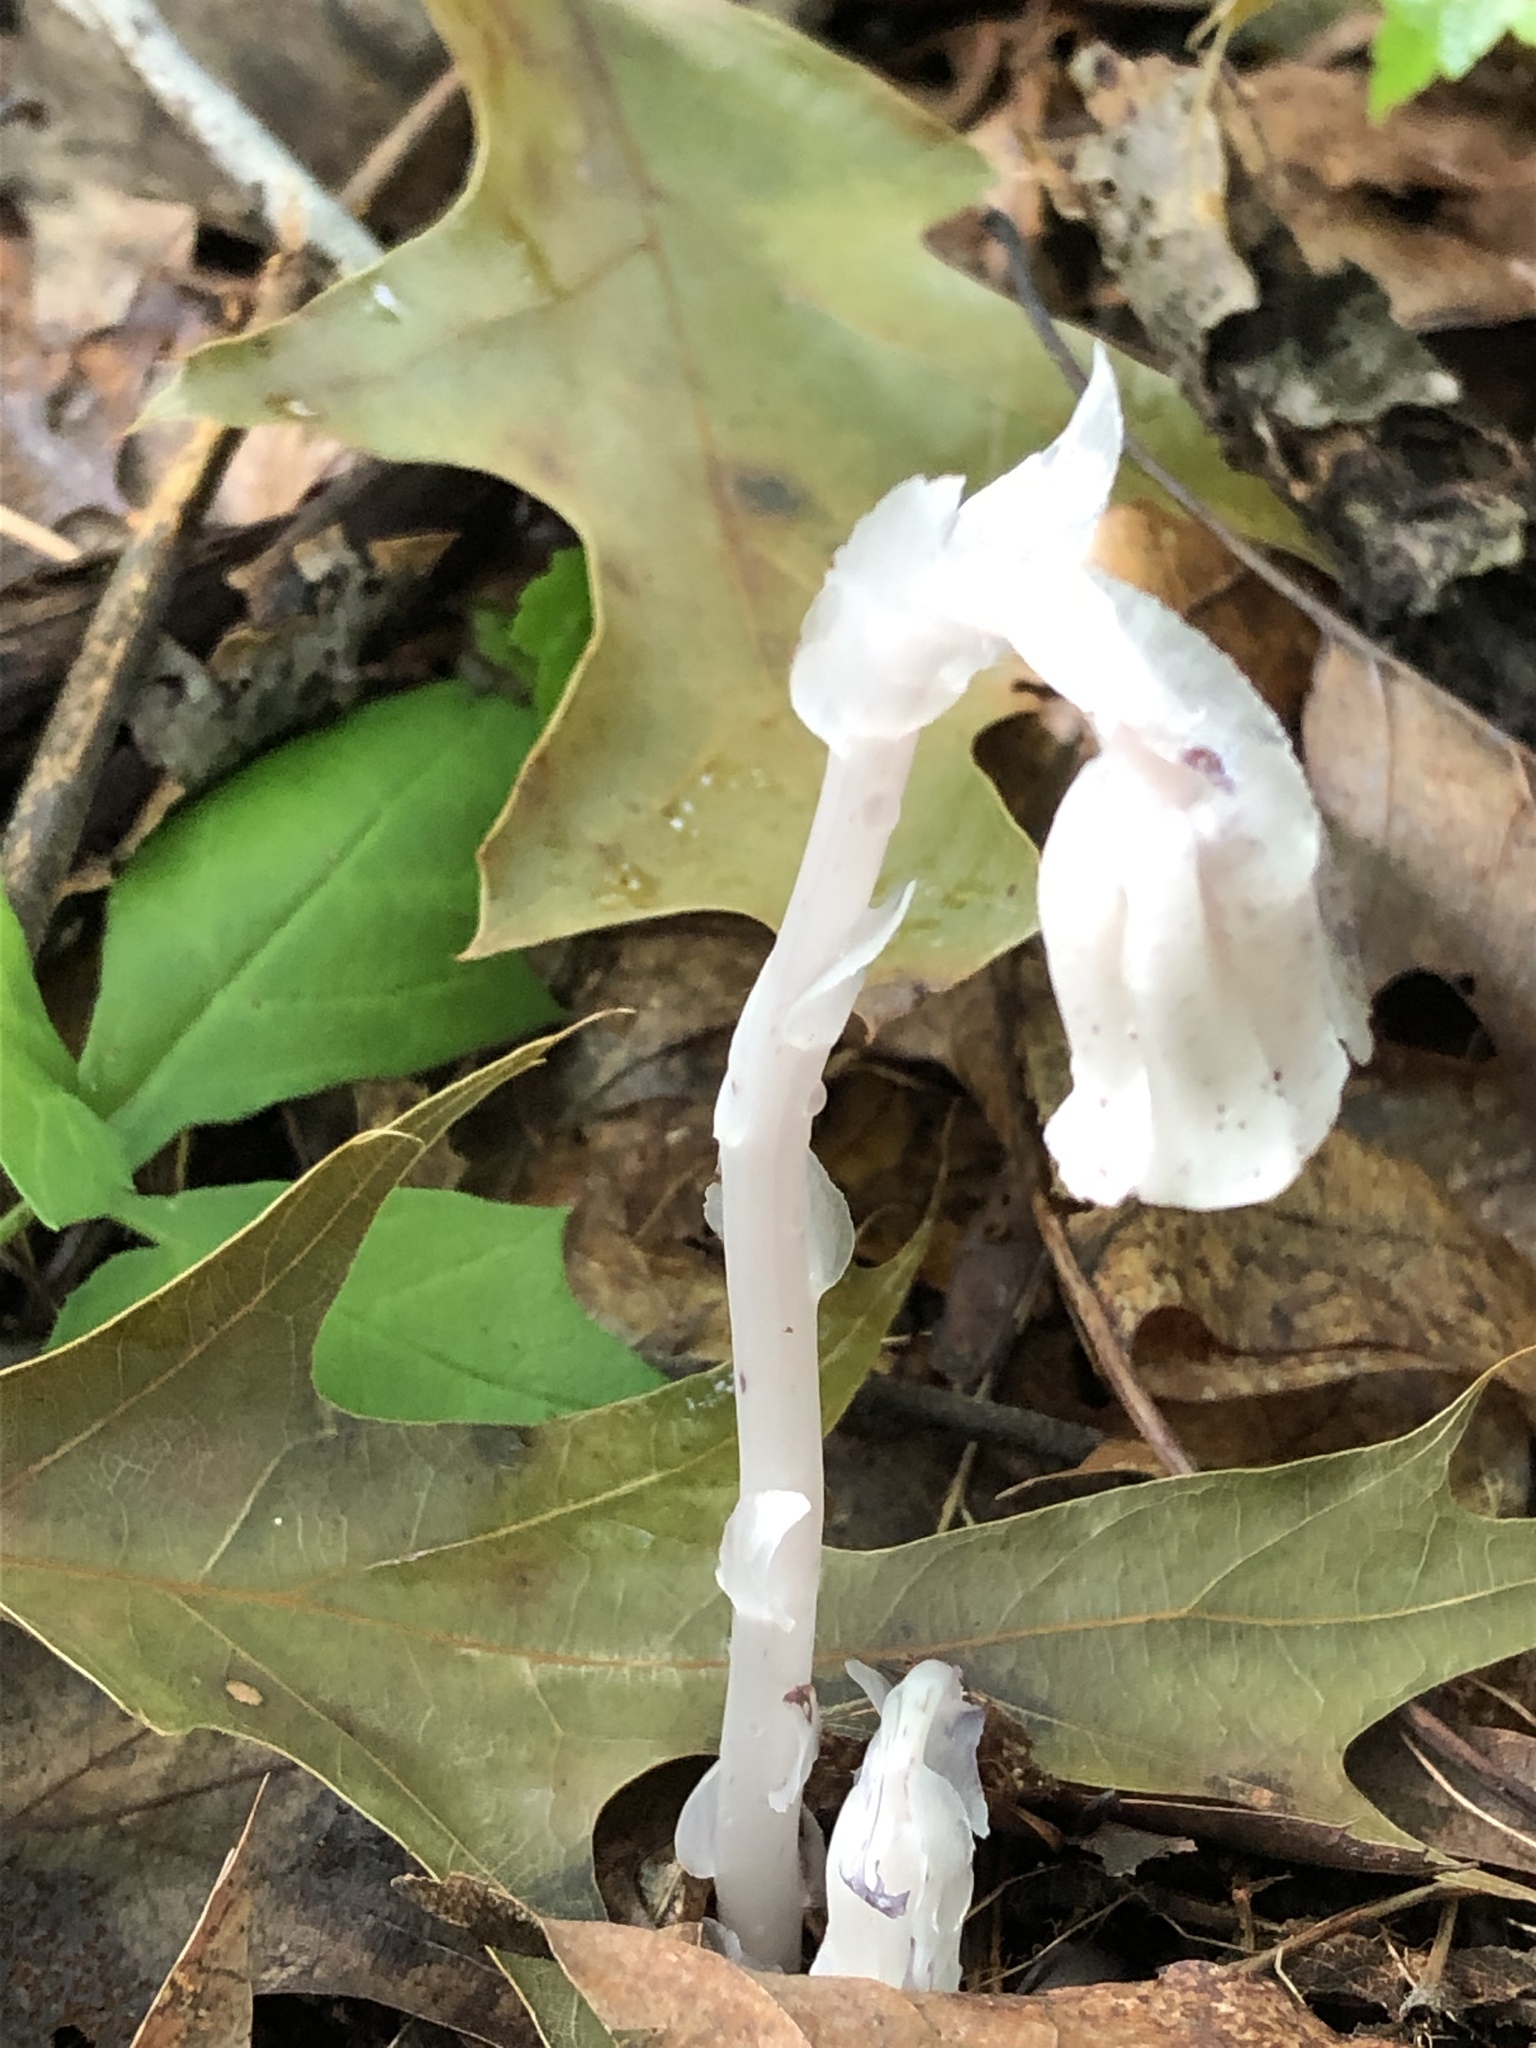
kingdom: Plantae
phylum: Tracheophyta
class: Magnoliopsida
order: Ericales
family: Ericaceae
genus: Monotropa
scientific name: Monotropa uniflora
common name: Convulsion root
